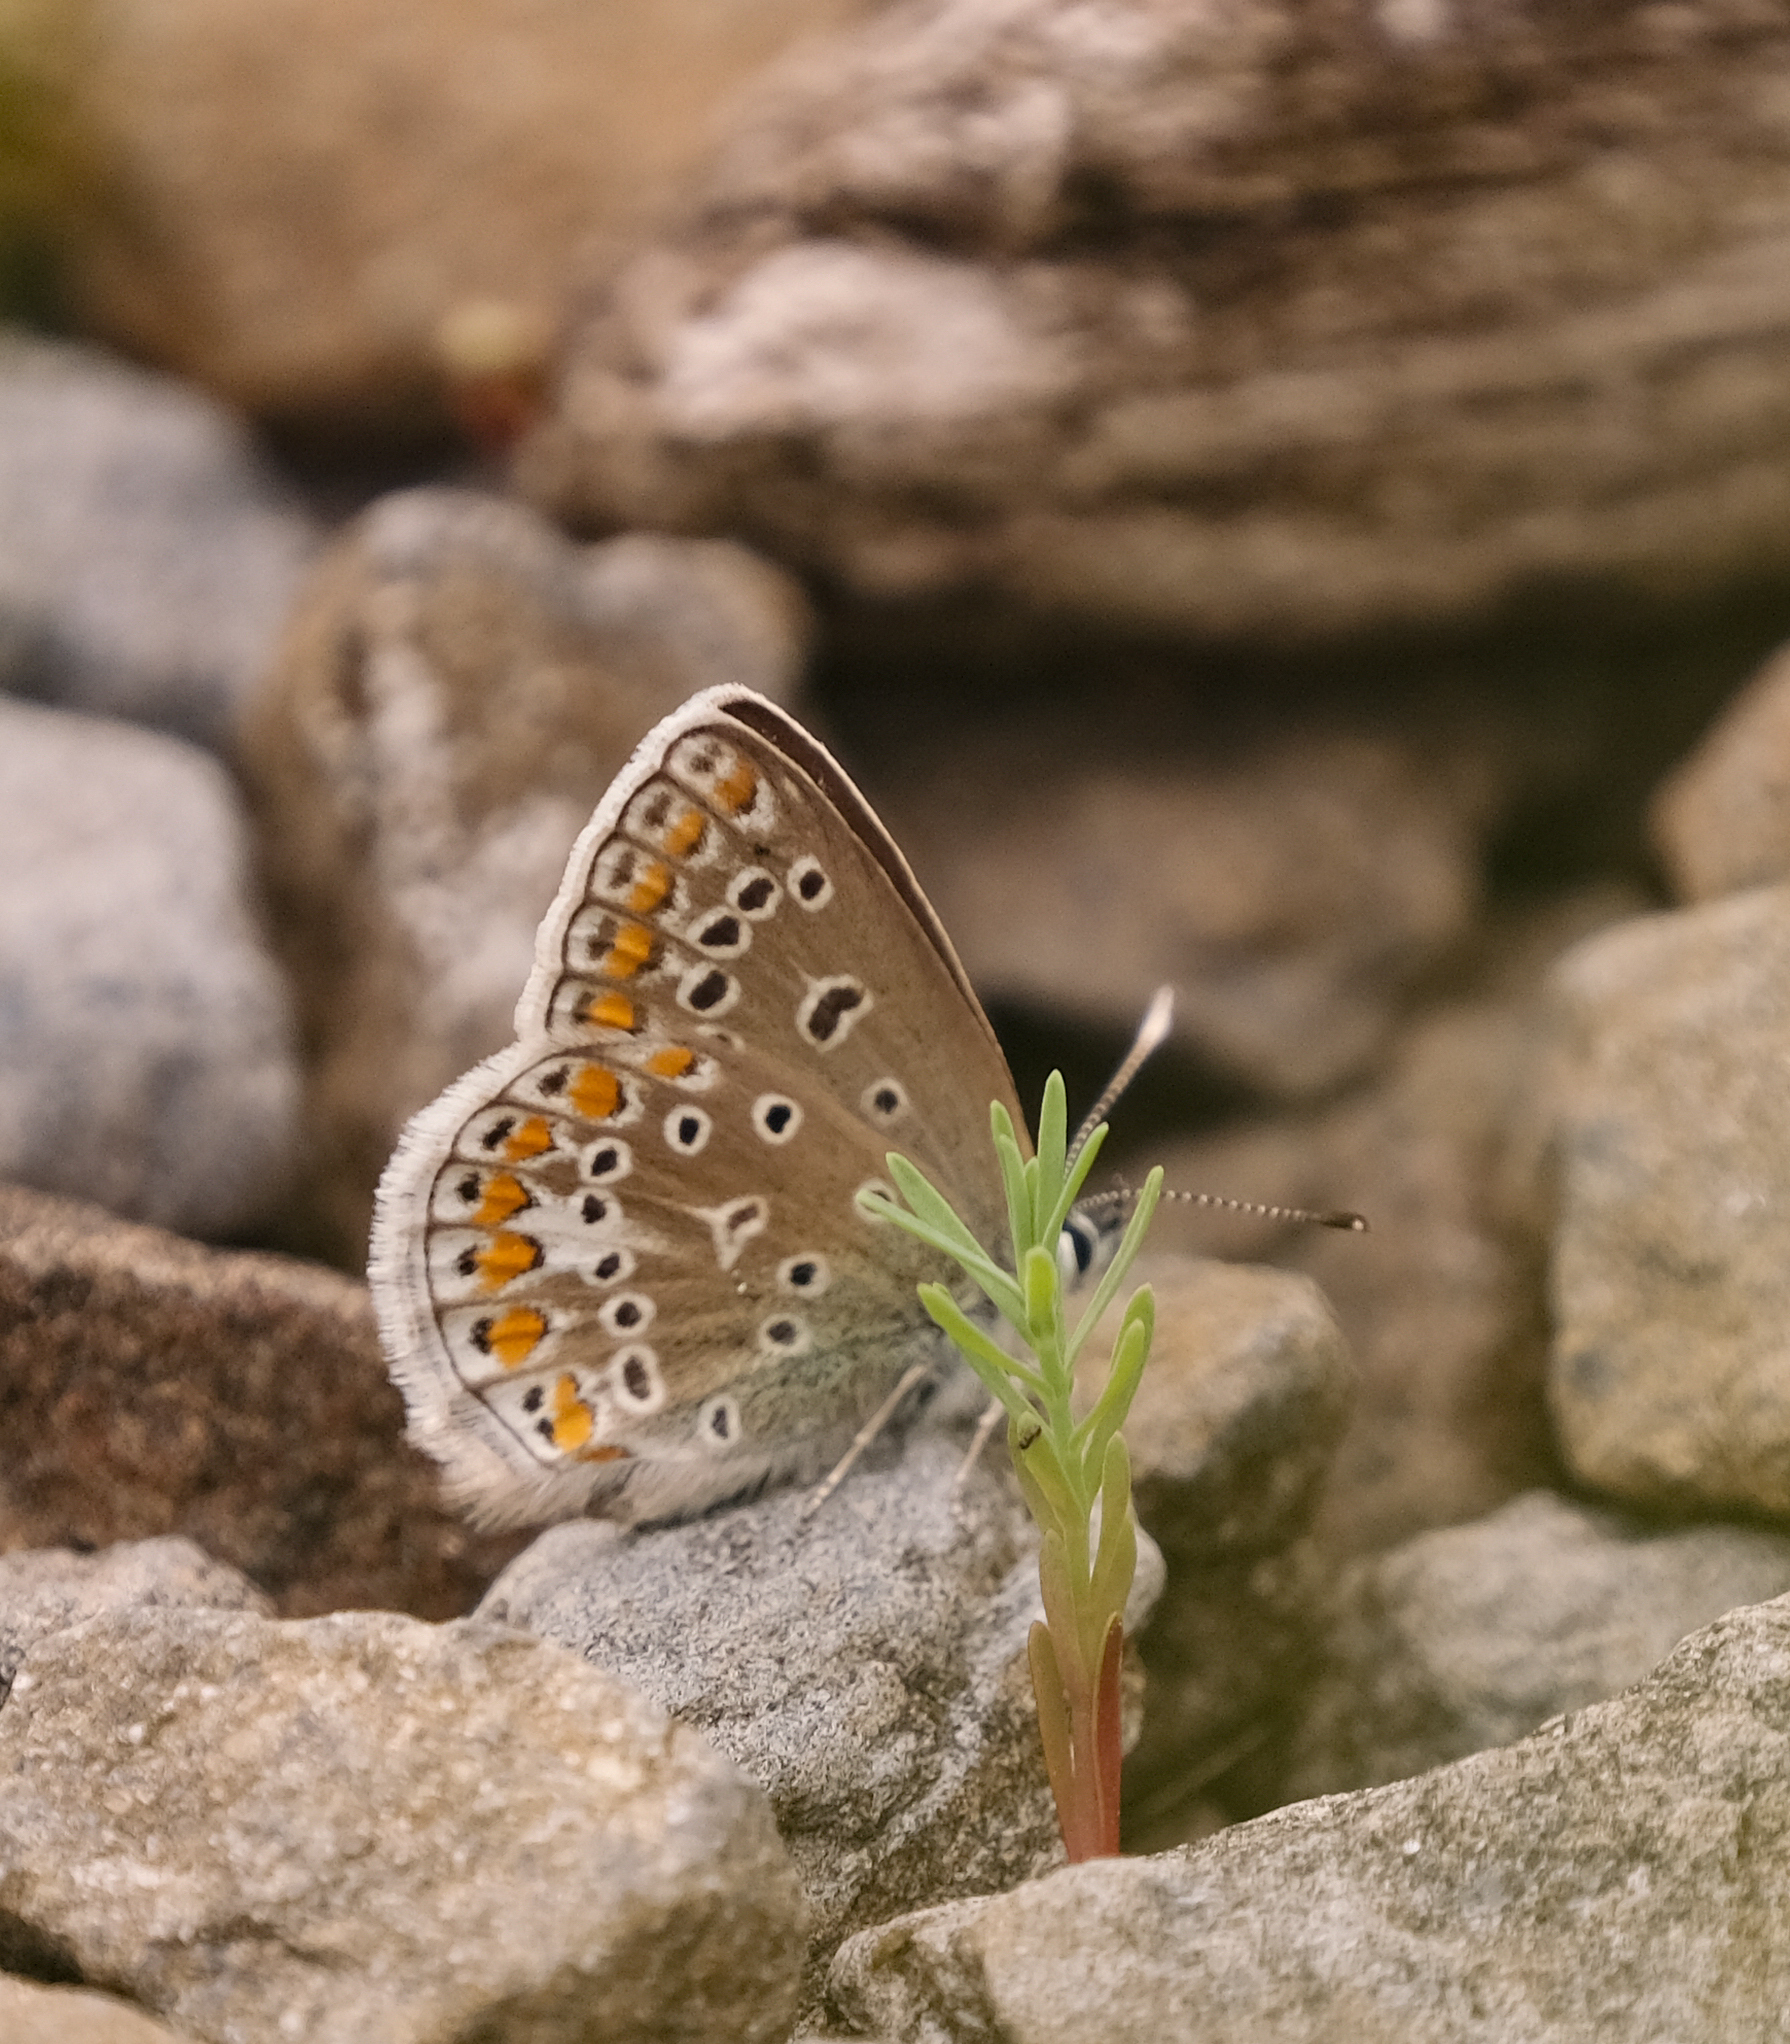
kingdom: Animalia
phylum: Arthropoda
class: Insecta
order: Lepidoptera
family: Lycaenidae
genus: Polyommatus
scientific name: Polyommatus icarus
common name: Common blue
